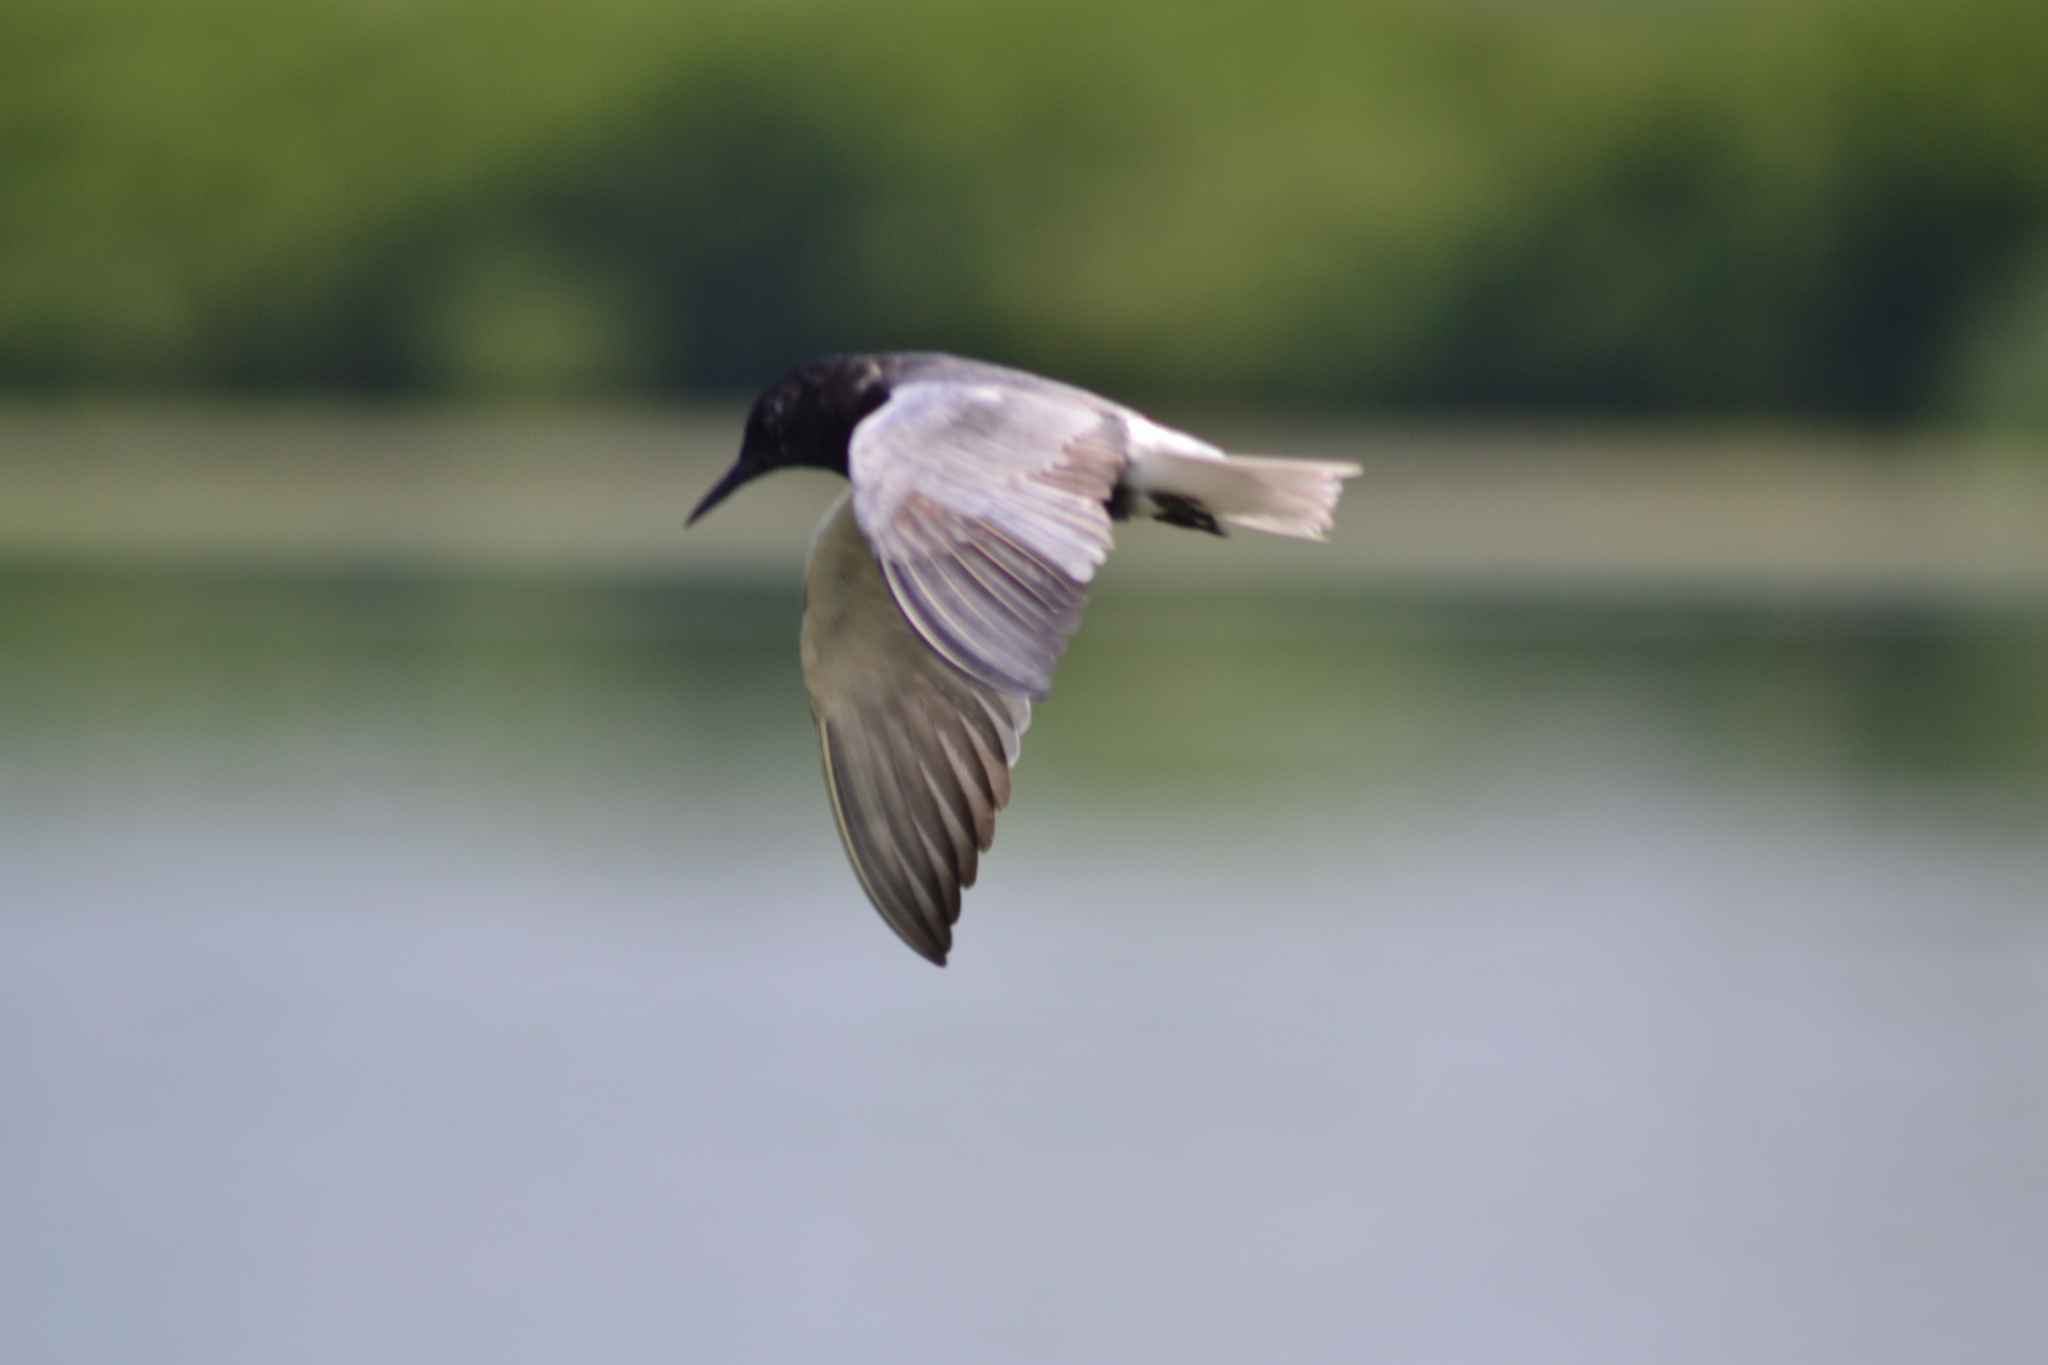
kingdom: Animalia
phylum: Chordata
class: Aves
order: Charadriiformes
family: Laridae
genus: Chlidonias
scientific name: Chlidonias niger
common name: Black tern
